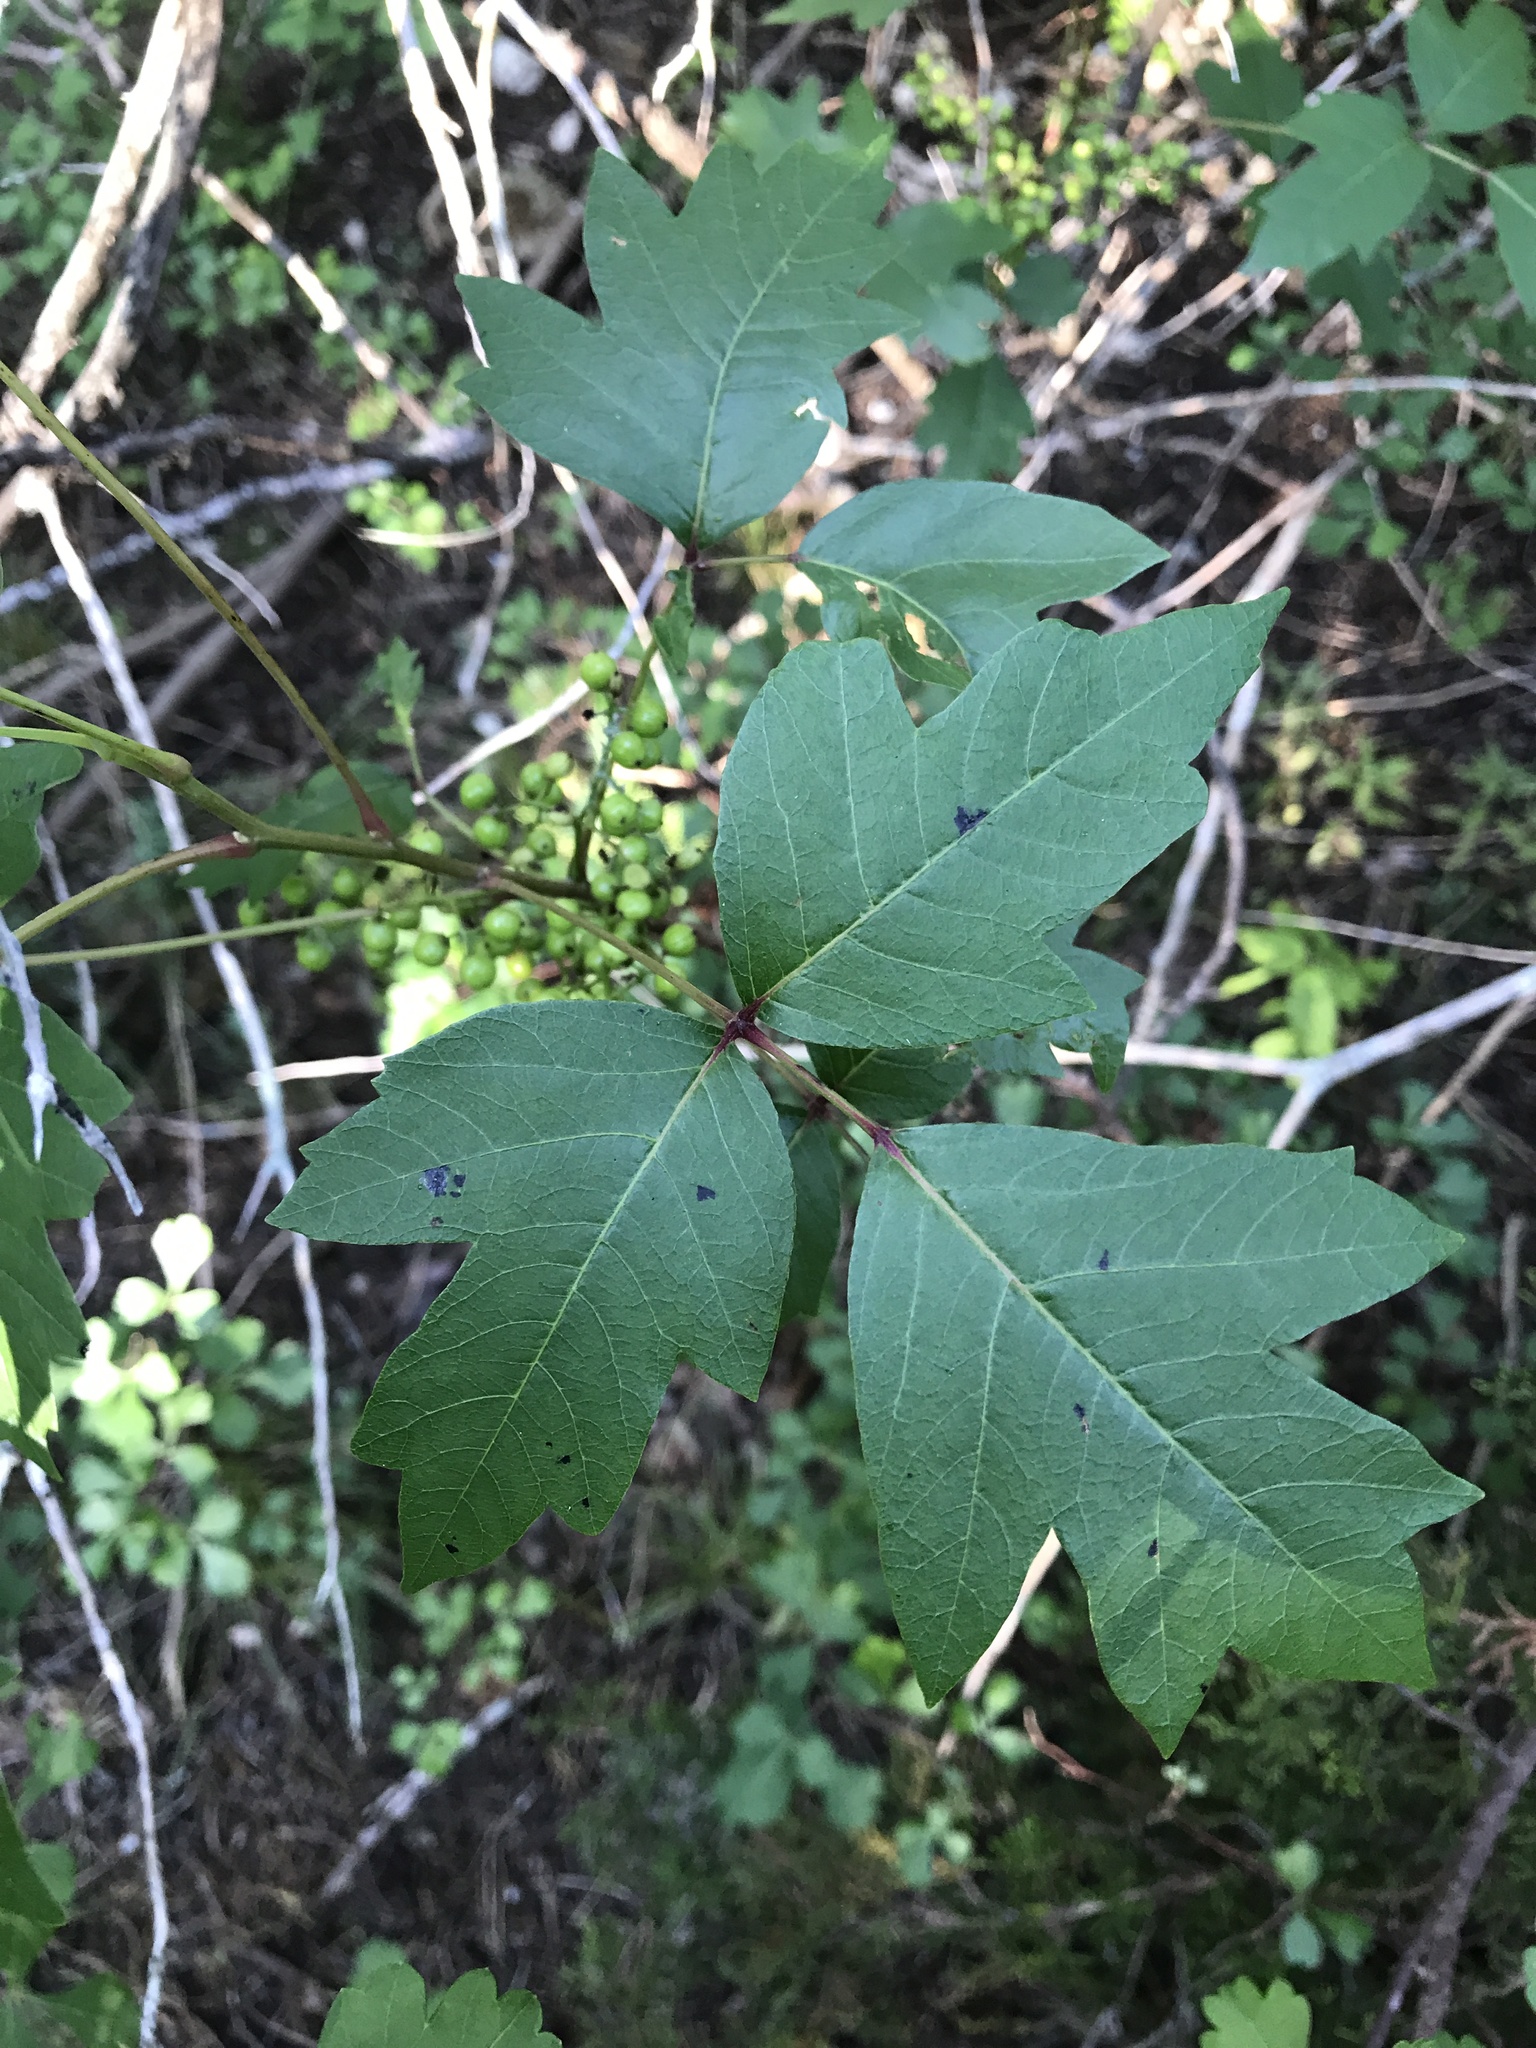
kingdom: Plantae
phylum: Tracheophyta
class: Magnoliopsida
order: Sapindales
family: Anacardiaceae
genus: Toxicodendron
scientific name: Toxicodendron radicans
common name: Poison ivy
